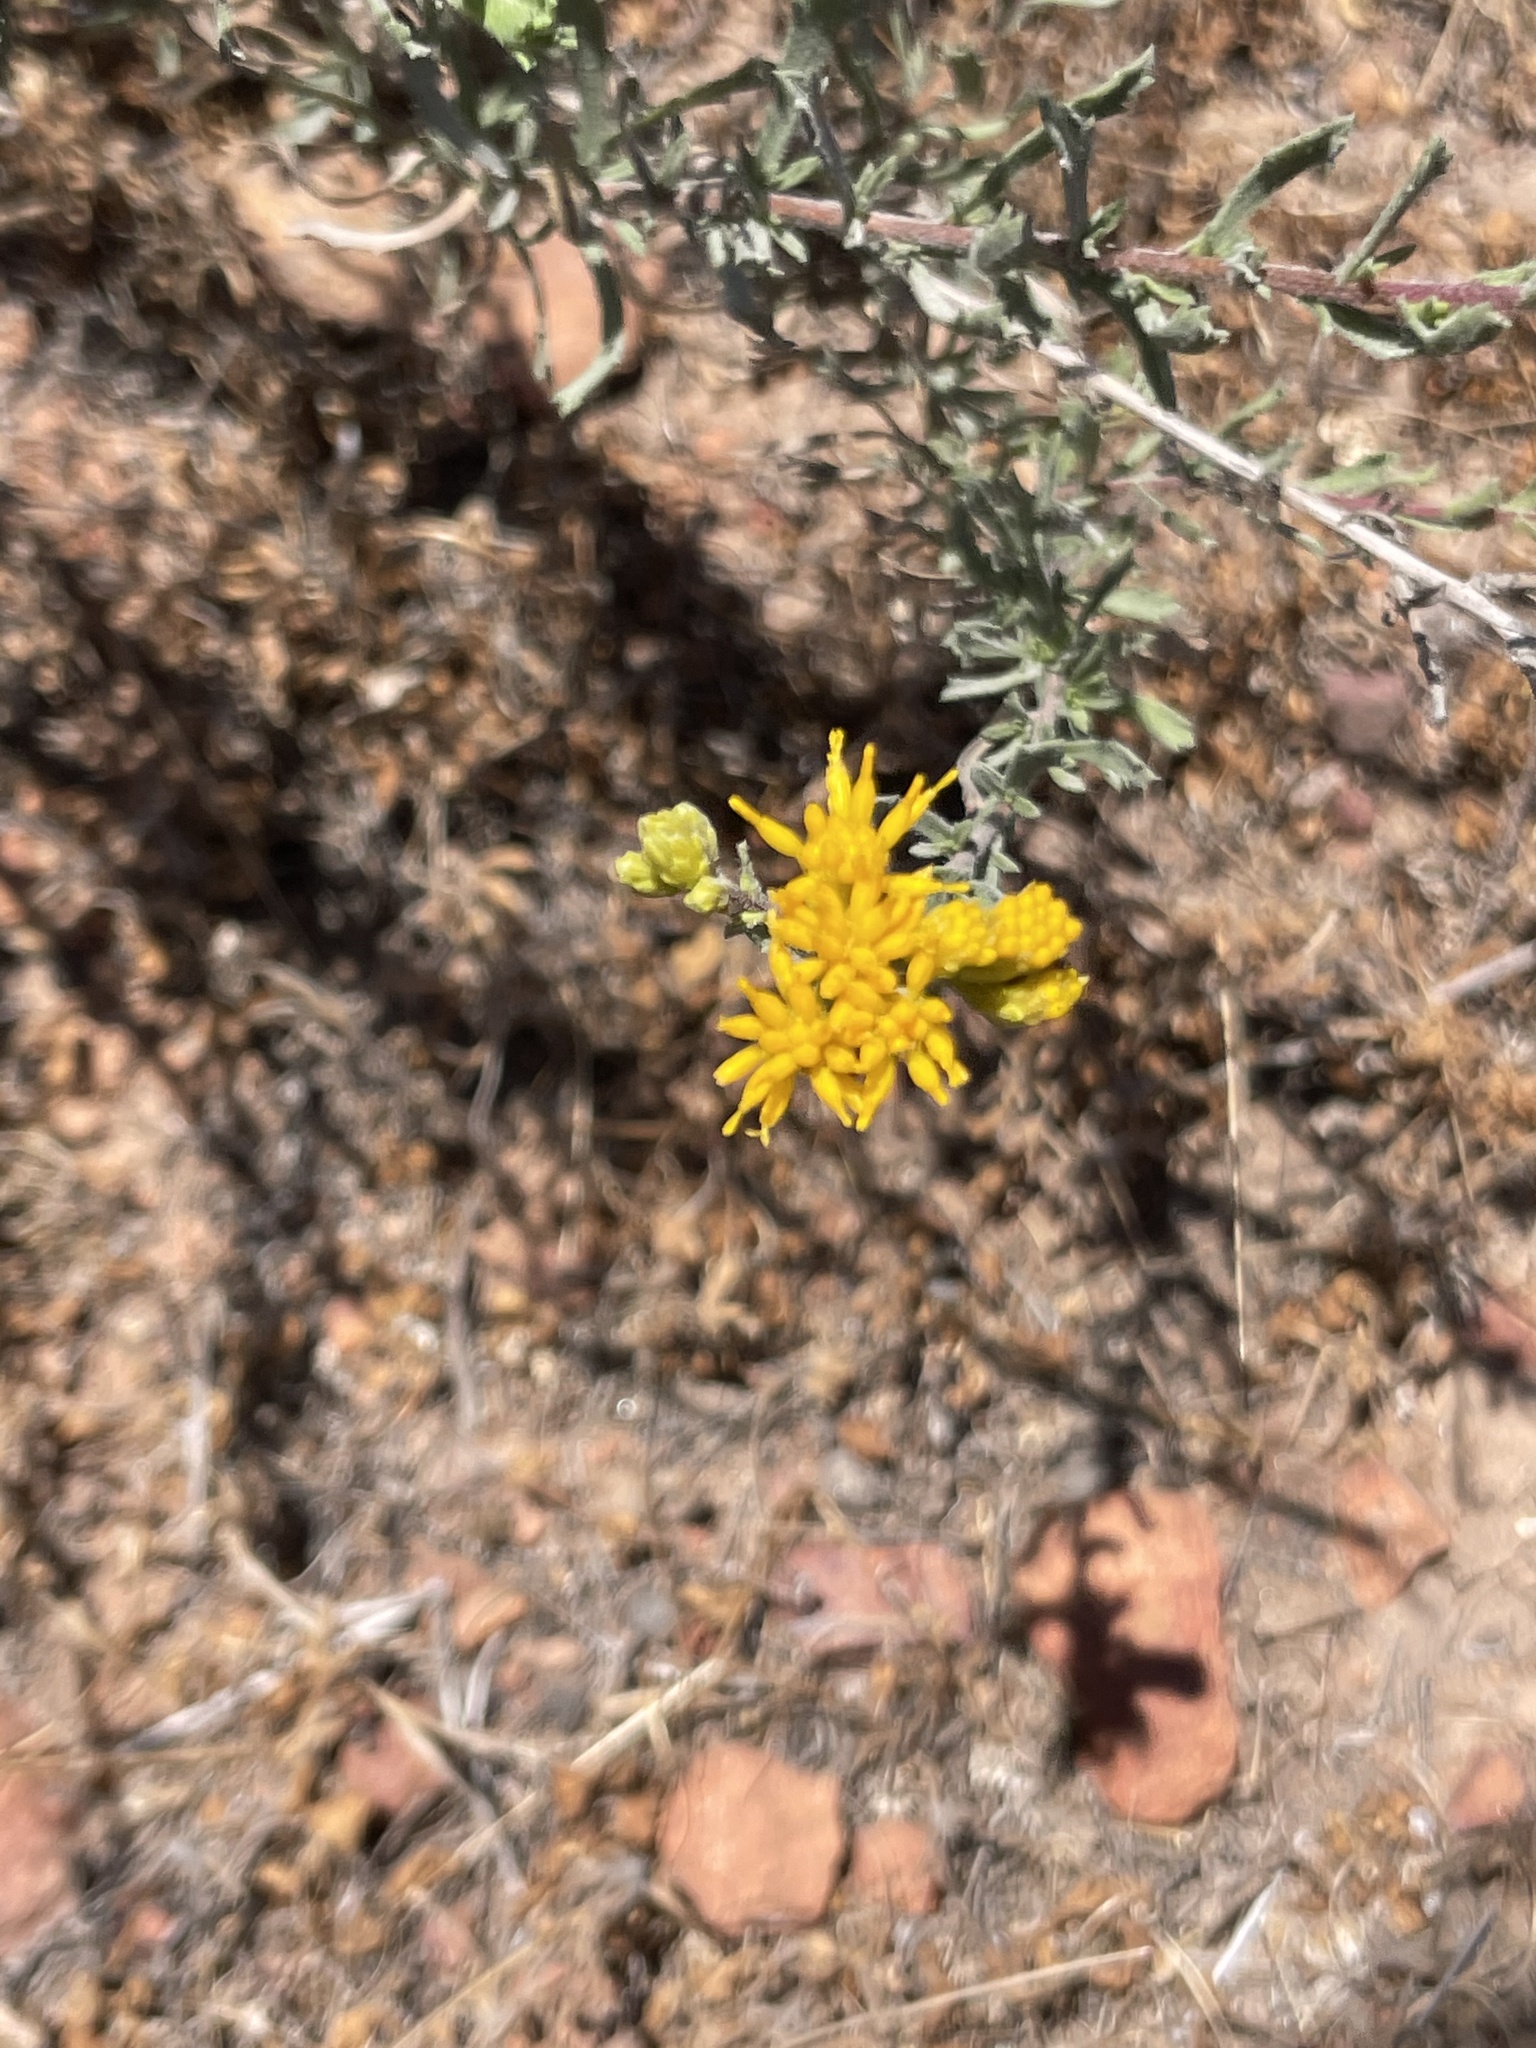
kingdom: Plantae
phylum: Tracheophyta
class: Magnoliopsida
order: Asterales
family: Asteraceae
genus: Isocoma
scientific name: Isocoma menziesii
